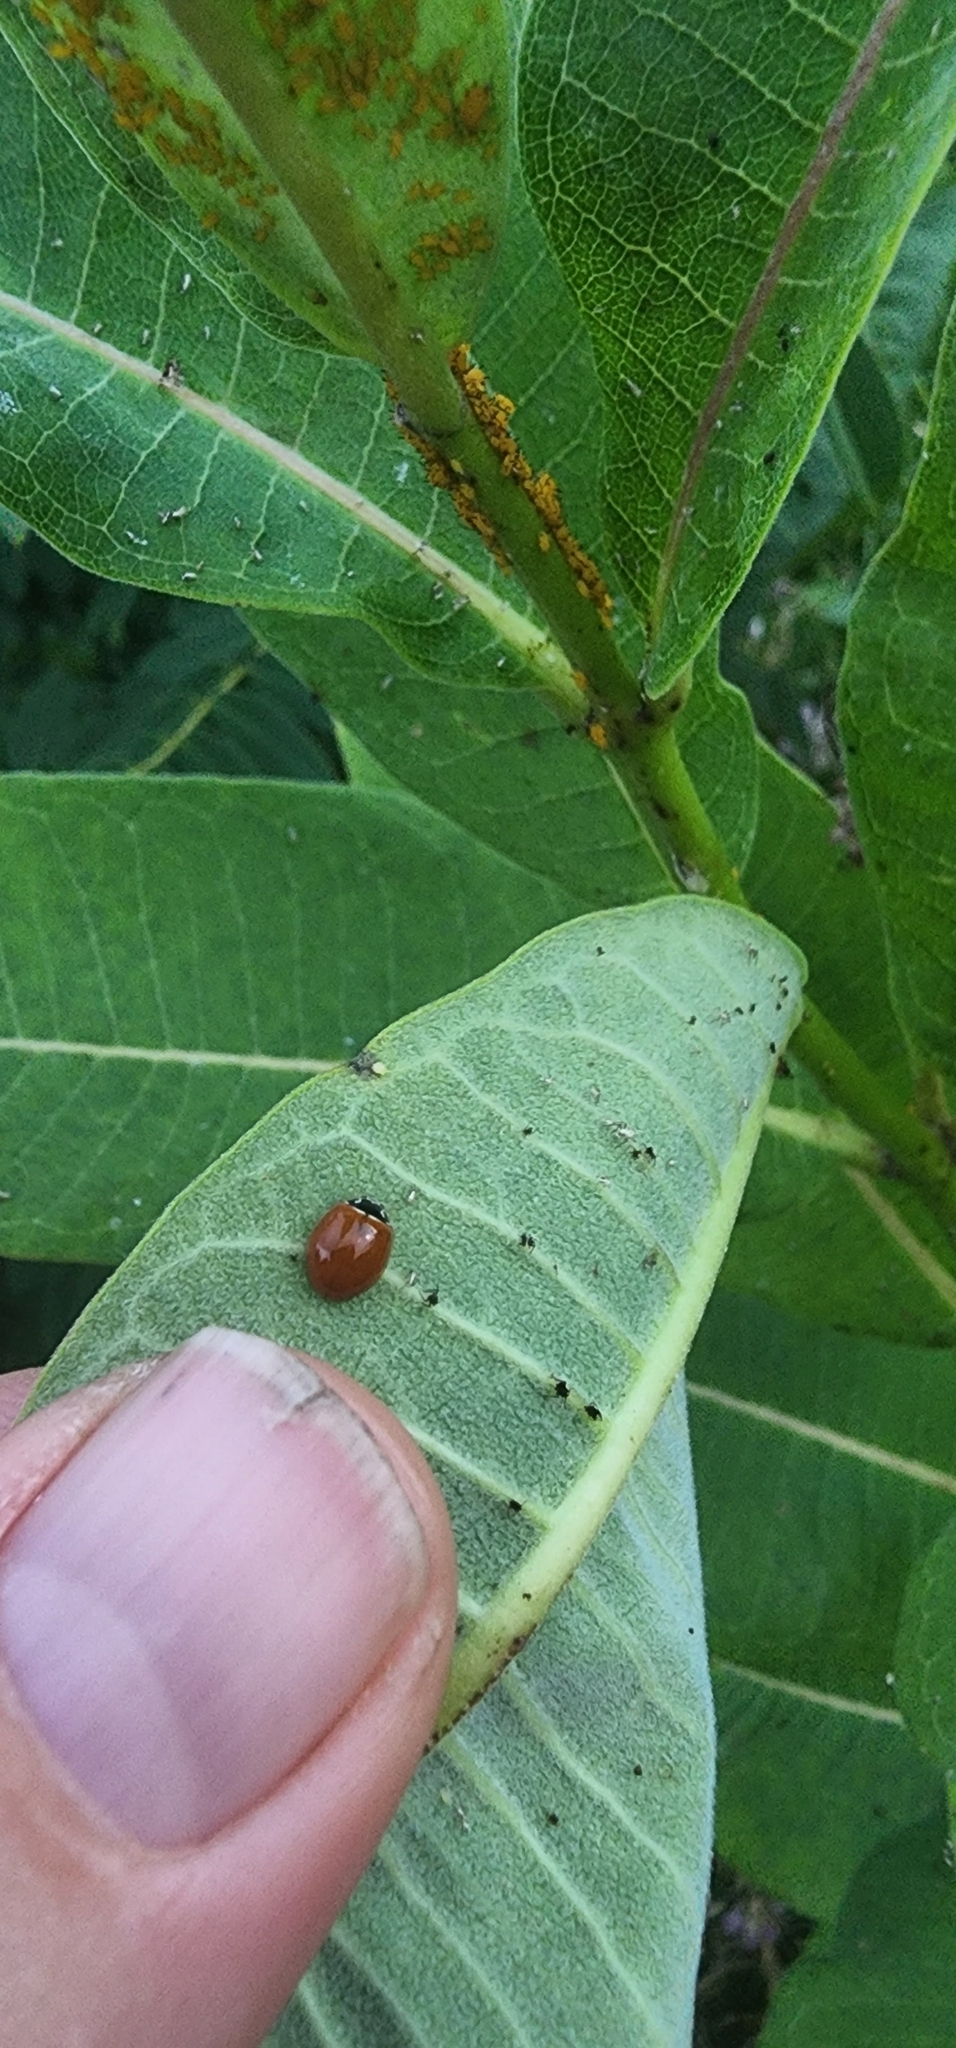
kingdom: Animalia
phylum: Arthropoda
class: Insecta
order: Coleoptera
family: Coccinellidae
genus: Cycloneda
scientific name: Cycloneda munda
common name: Polished lady beetle
